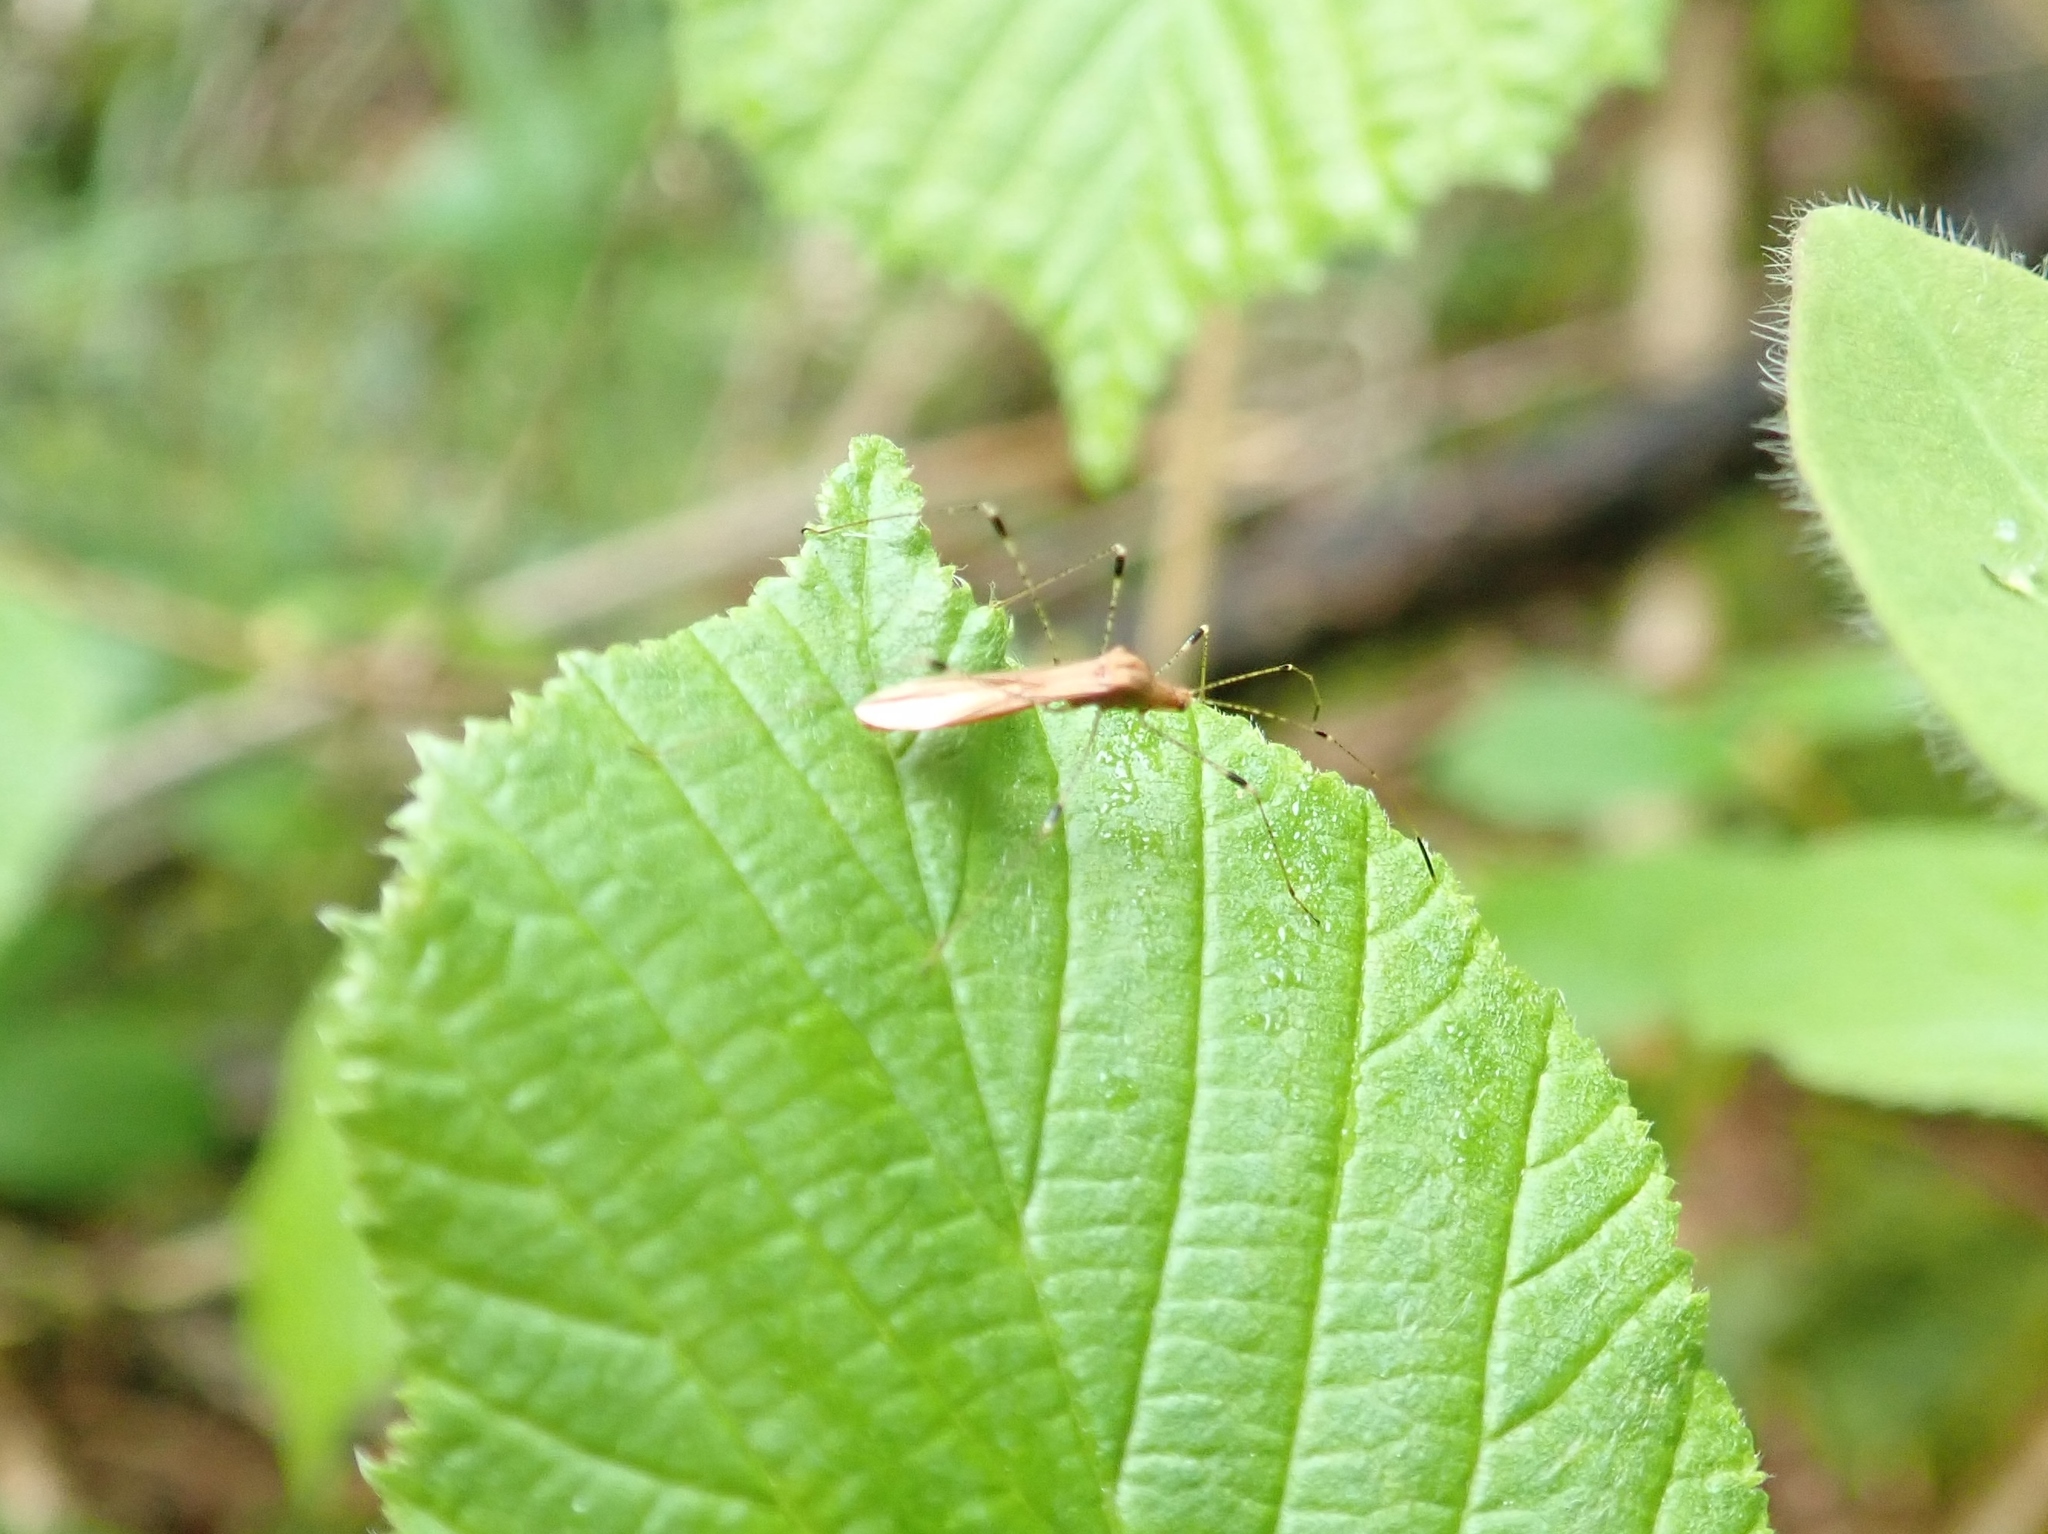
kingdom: Animalia
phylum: Arthropoda
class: Insecta
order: Hemiptera
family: Berytidae
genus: Metatropis
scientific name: Metatropis rufescens
